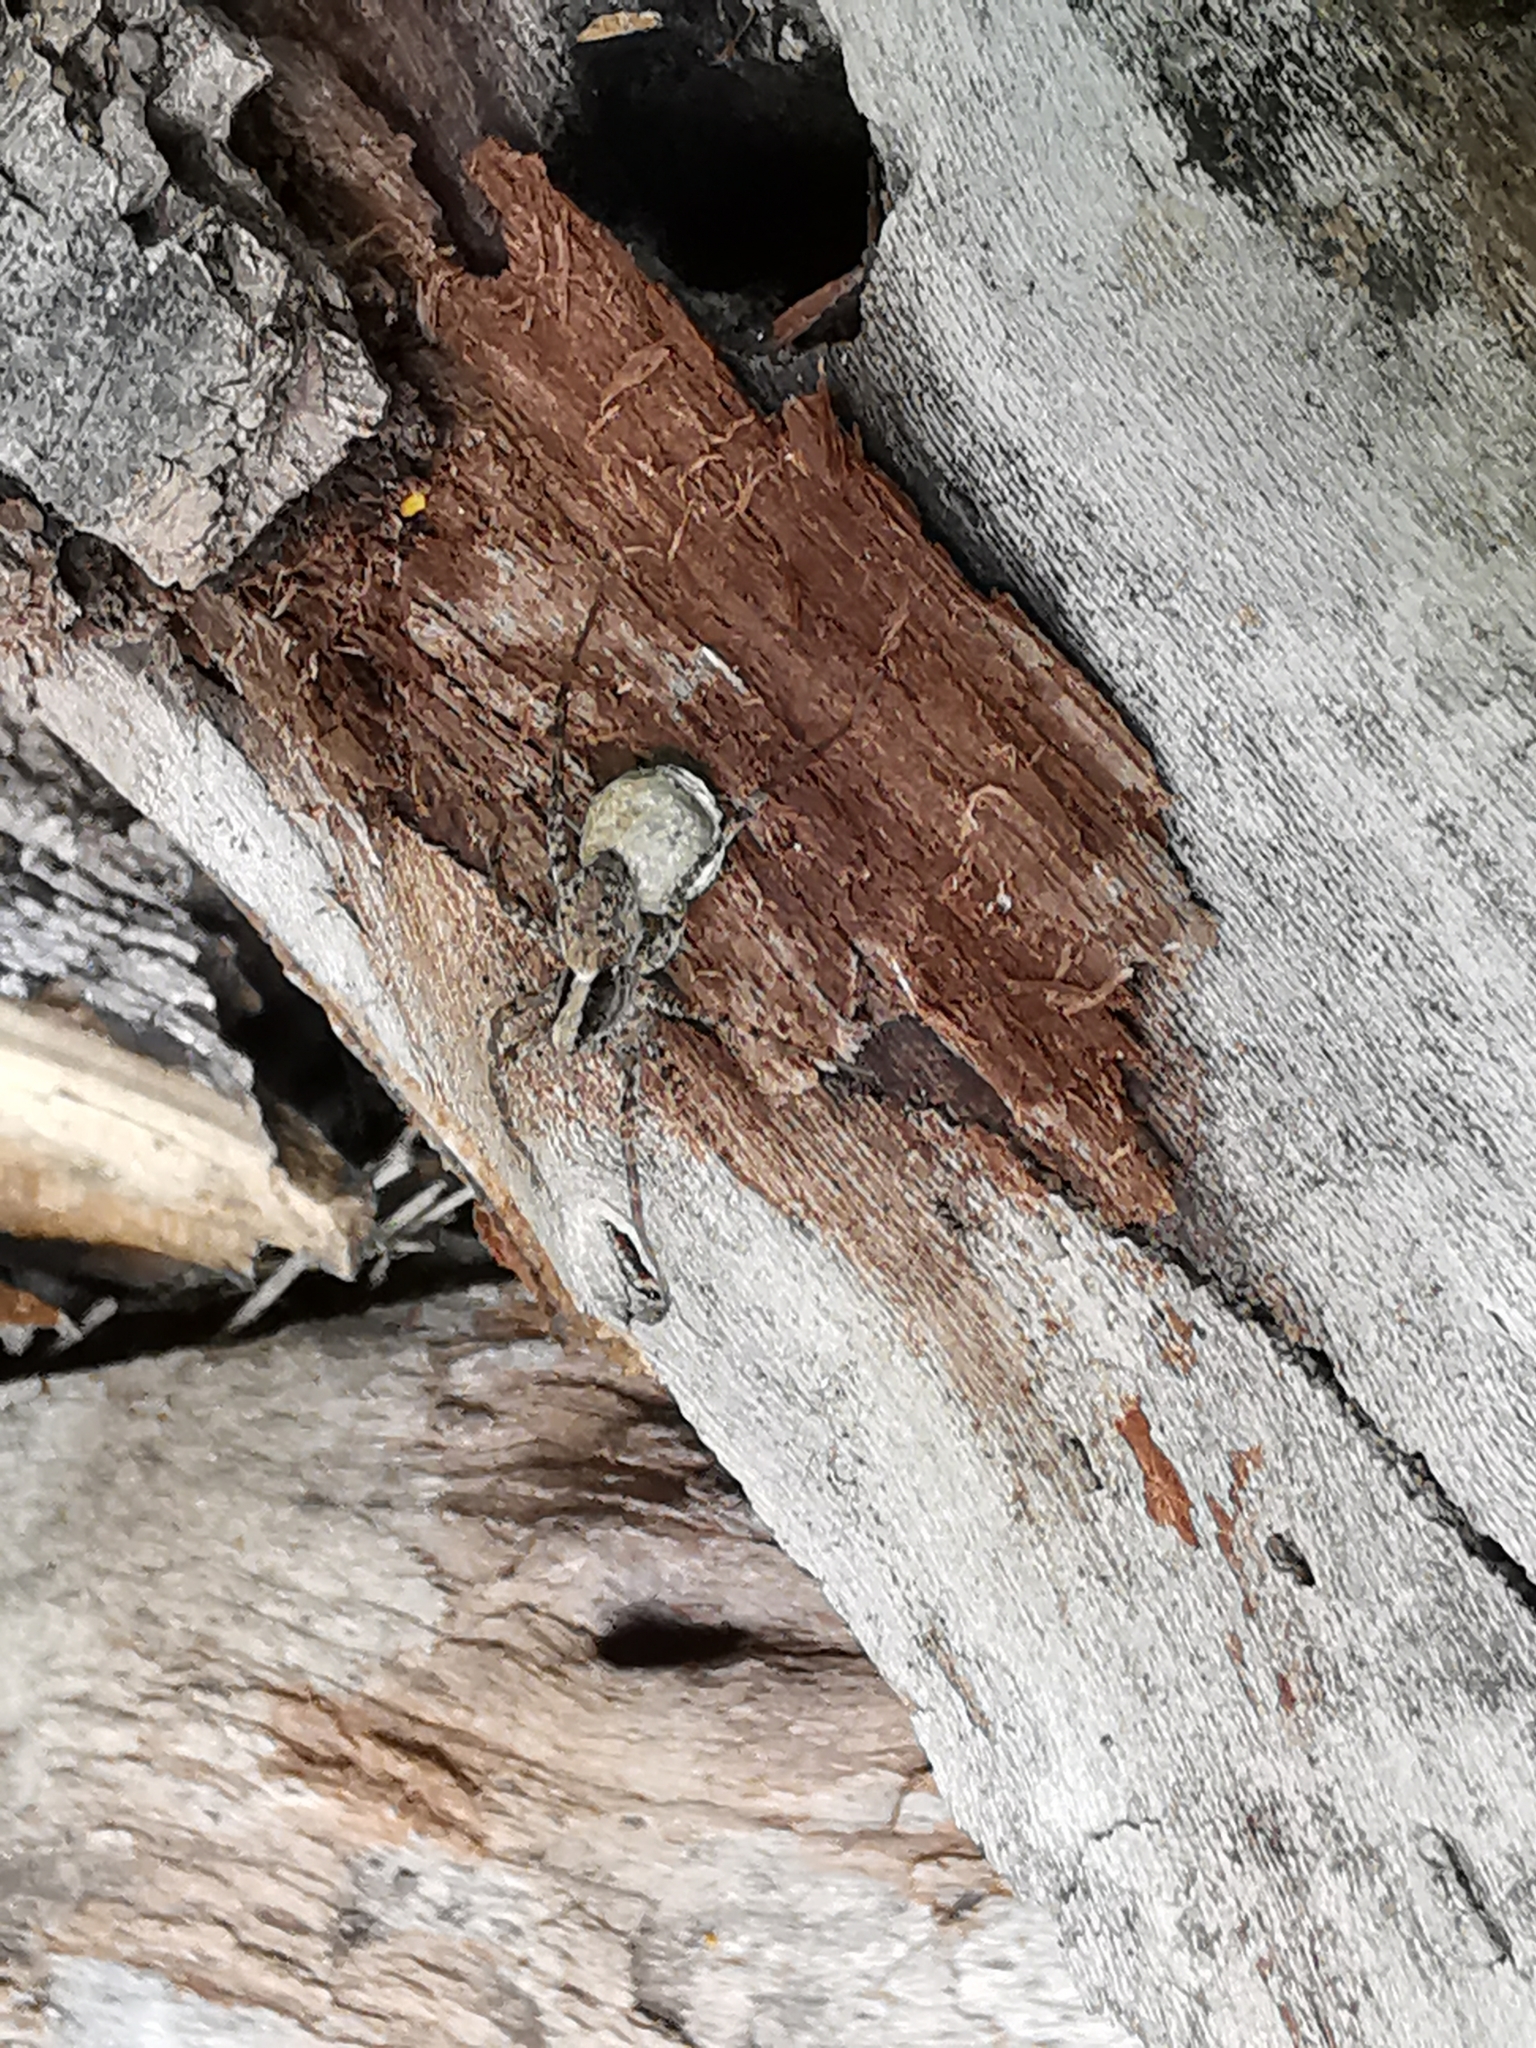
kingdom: Animalia
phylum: Arthropoda
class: Arachnida
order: Araneae
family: Lycosidae
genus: Pardosa
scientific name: Pardosa
